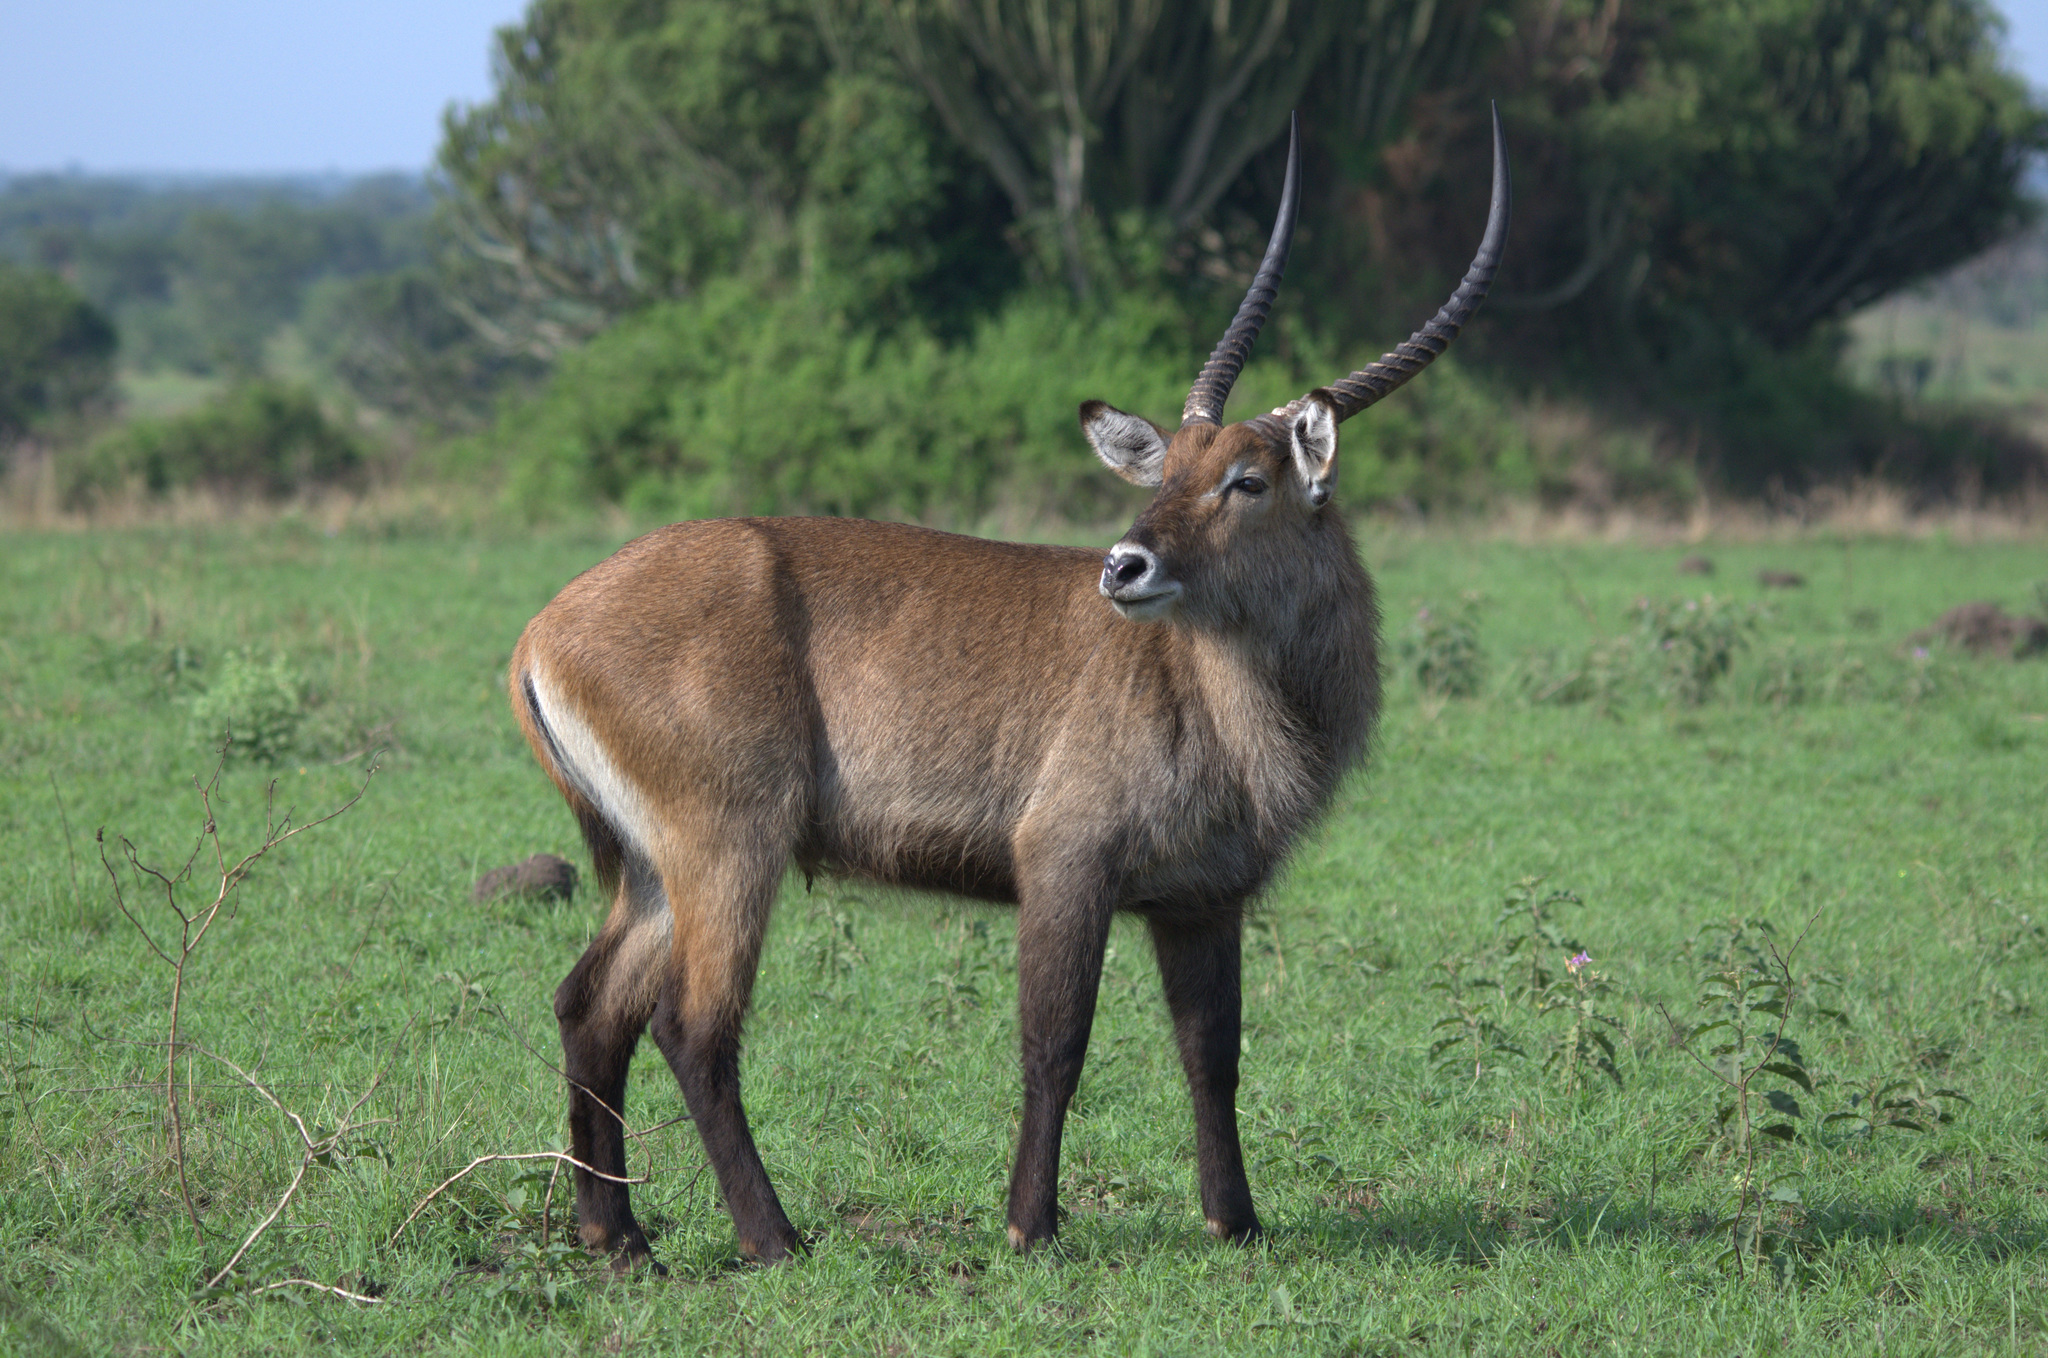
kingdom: Animalia
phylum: Chordata
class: Mammalia
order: Artiodactyla
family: Bovidae
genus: Kobus
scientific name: Kobus ellipsiprymnus
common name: Waterbuck
